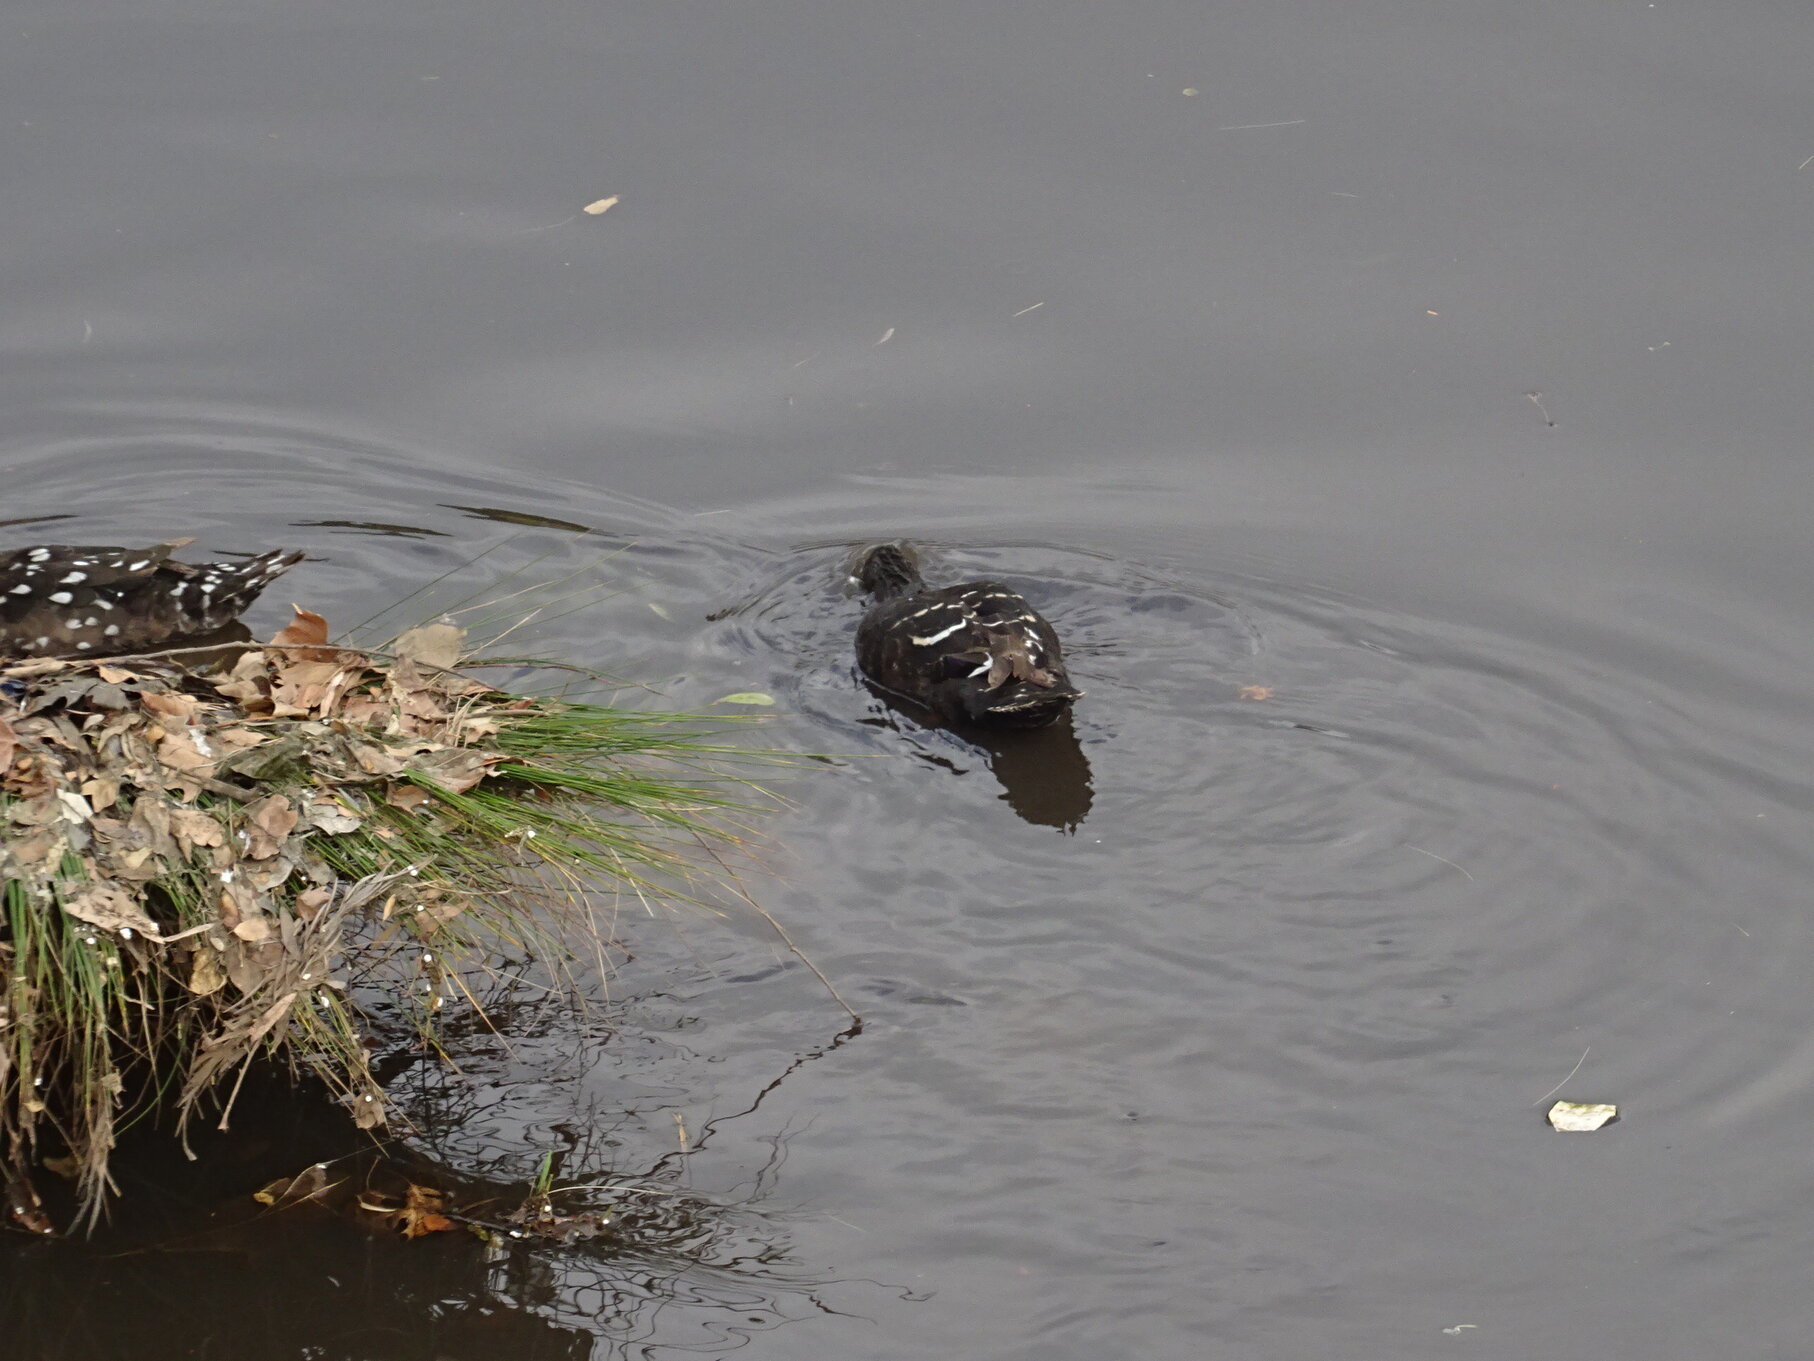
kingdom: Animalia
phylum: Chordata
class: Aves
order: Anseriformes
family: Anatidae
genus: Anas
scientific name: Anas sparsa
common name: African black duck
